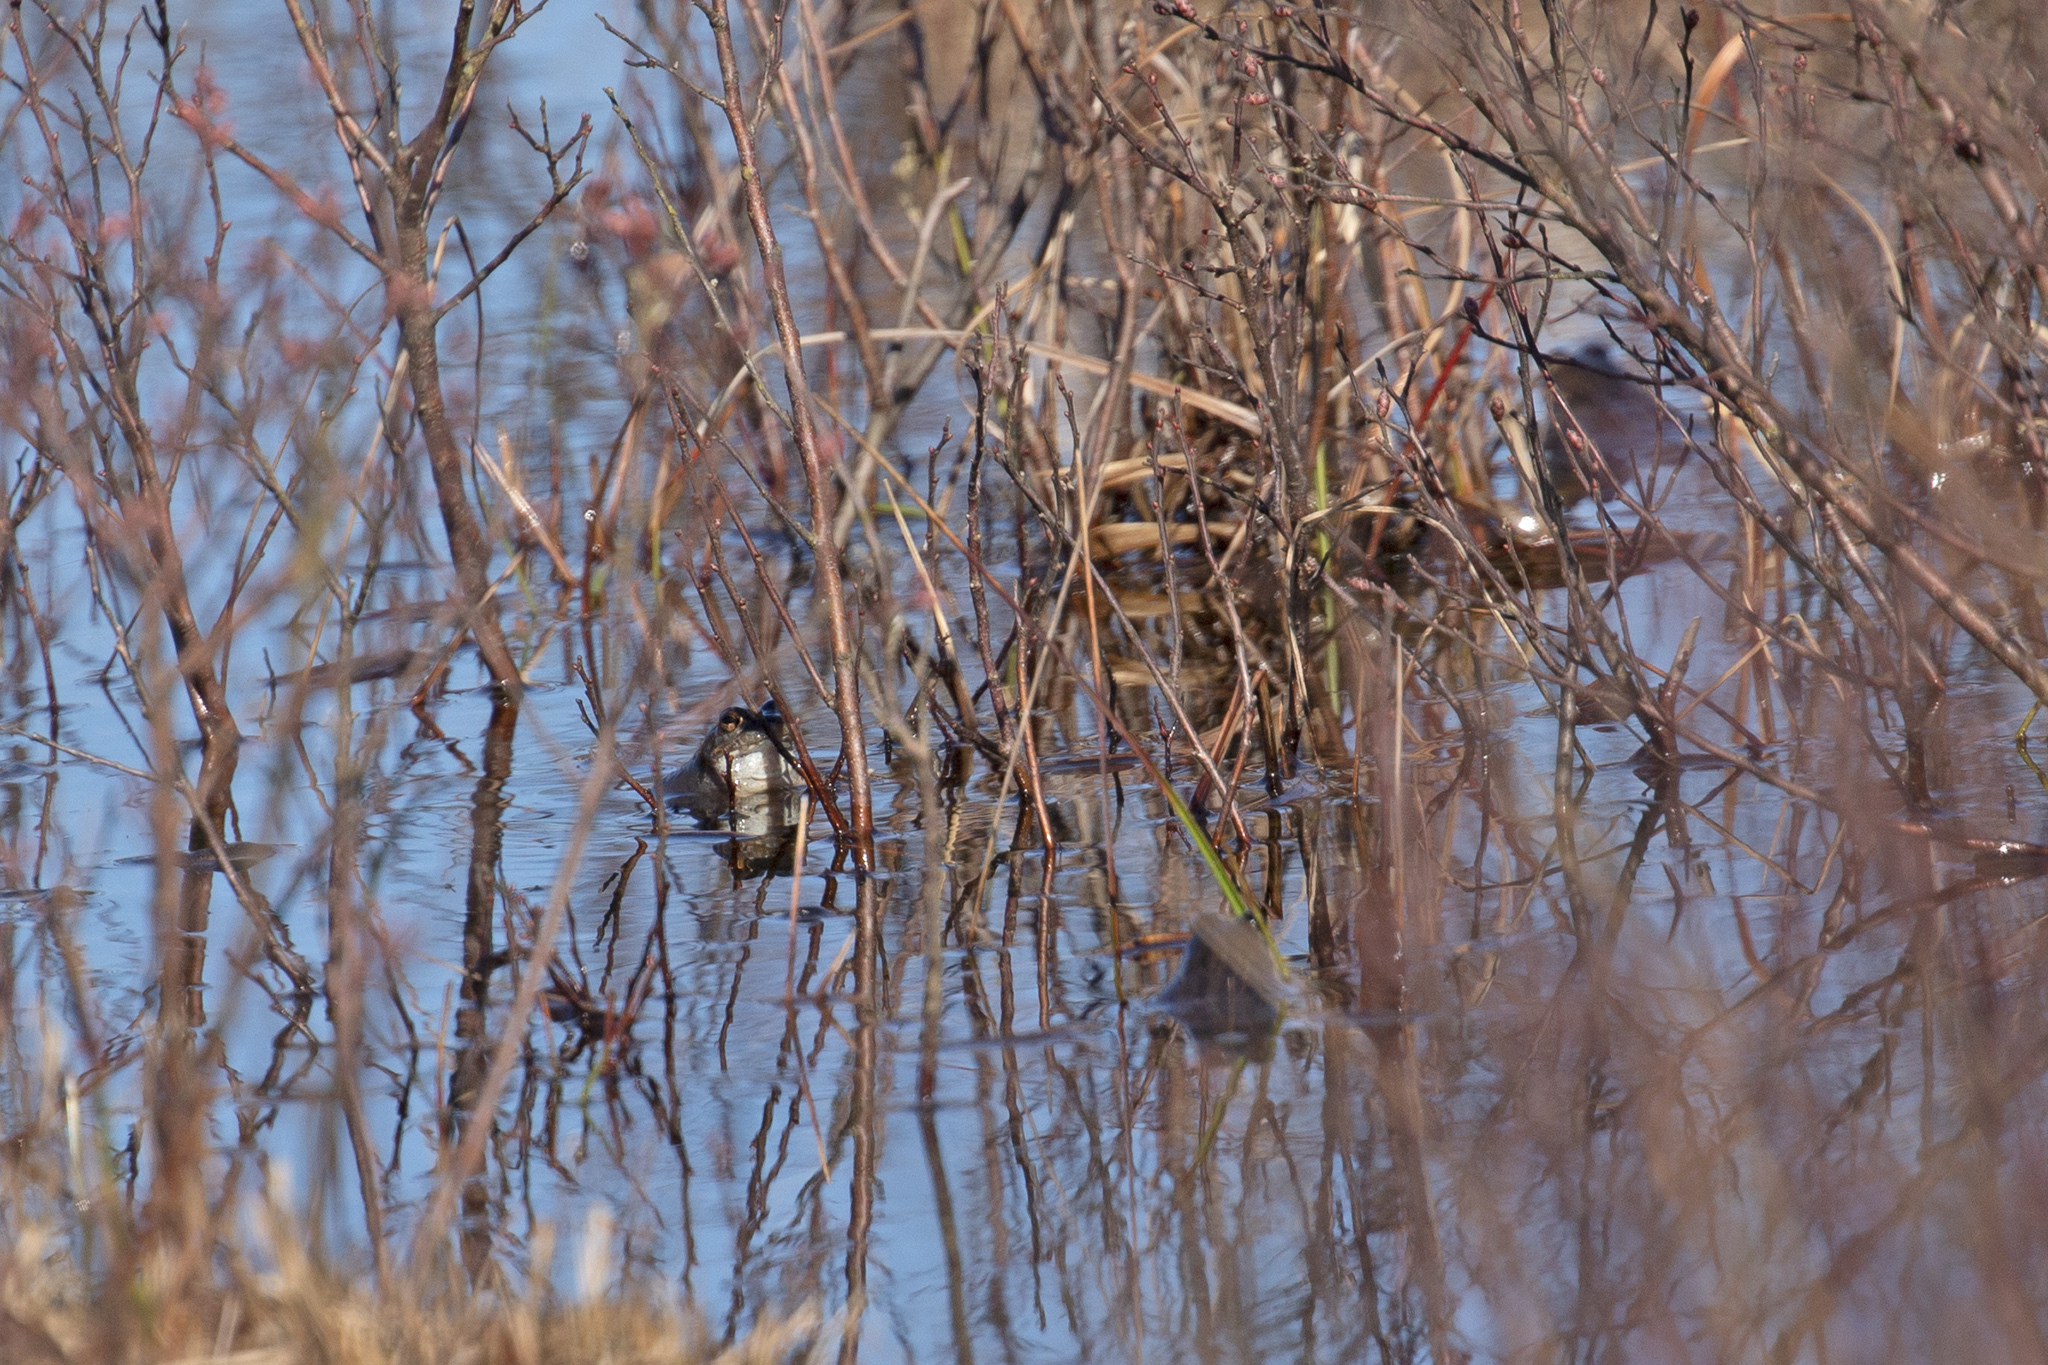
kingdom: Animalia
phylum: Chordata
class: Amphibia
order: Anura
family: Ranidae
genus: Rana
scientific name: Rana arvalis
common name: Moor frog
